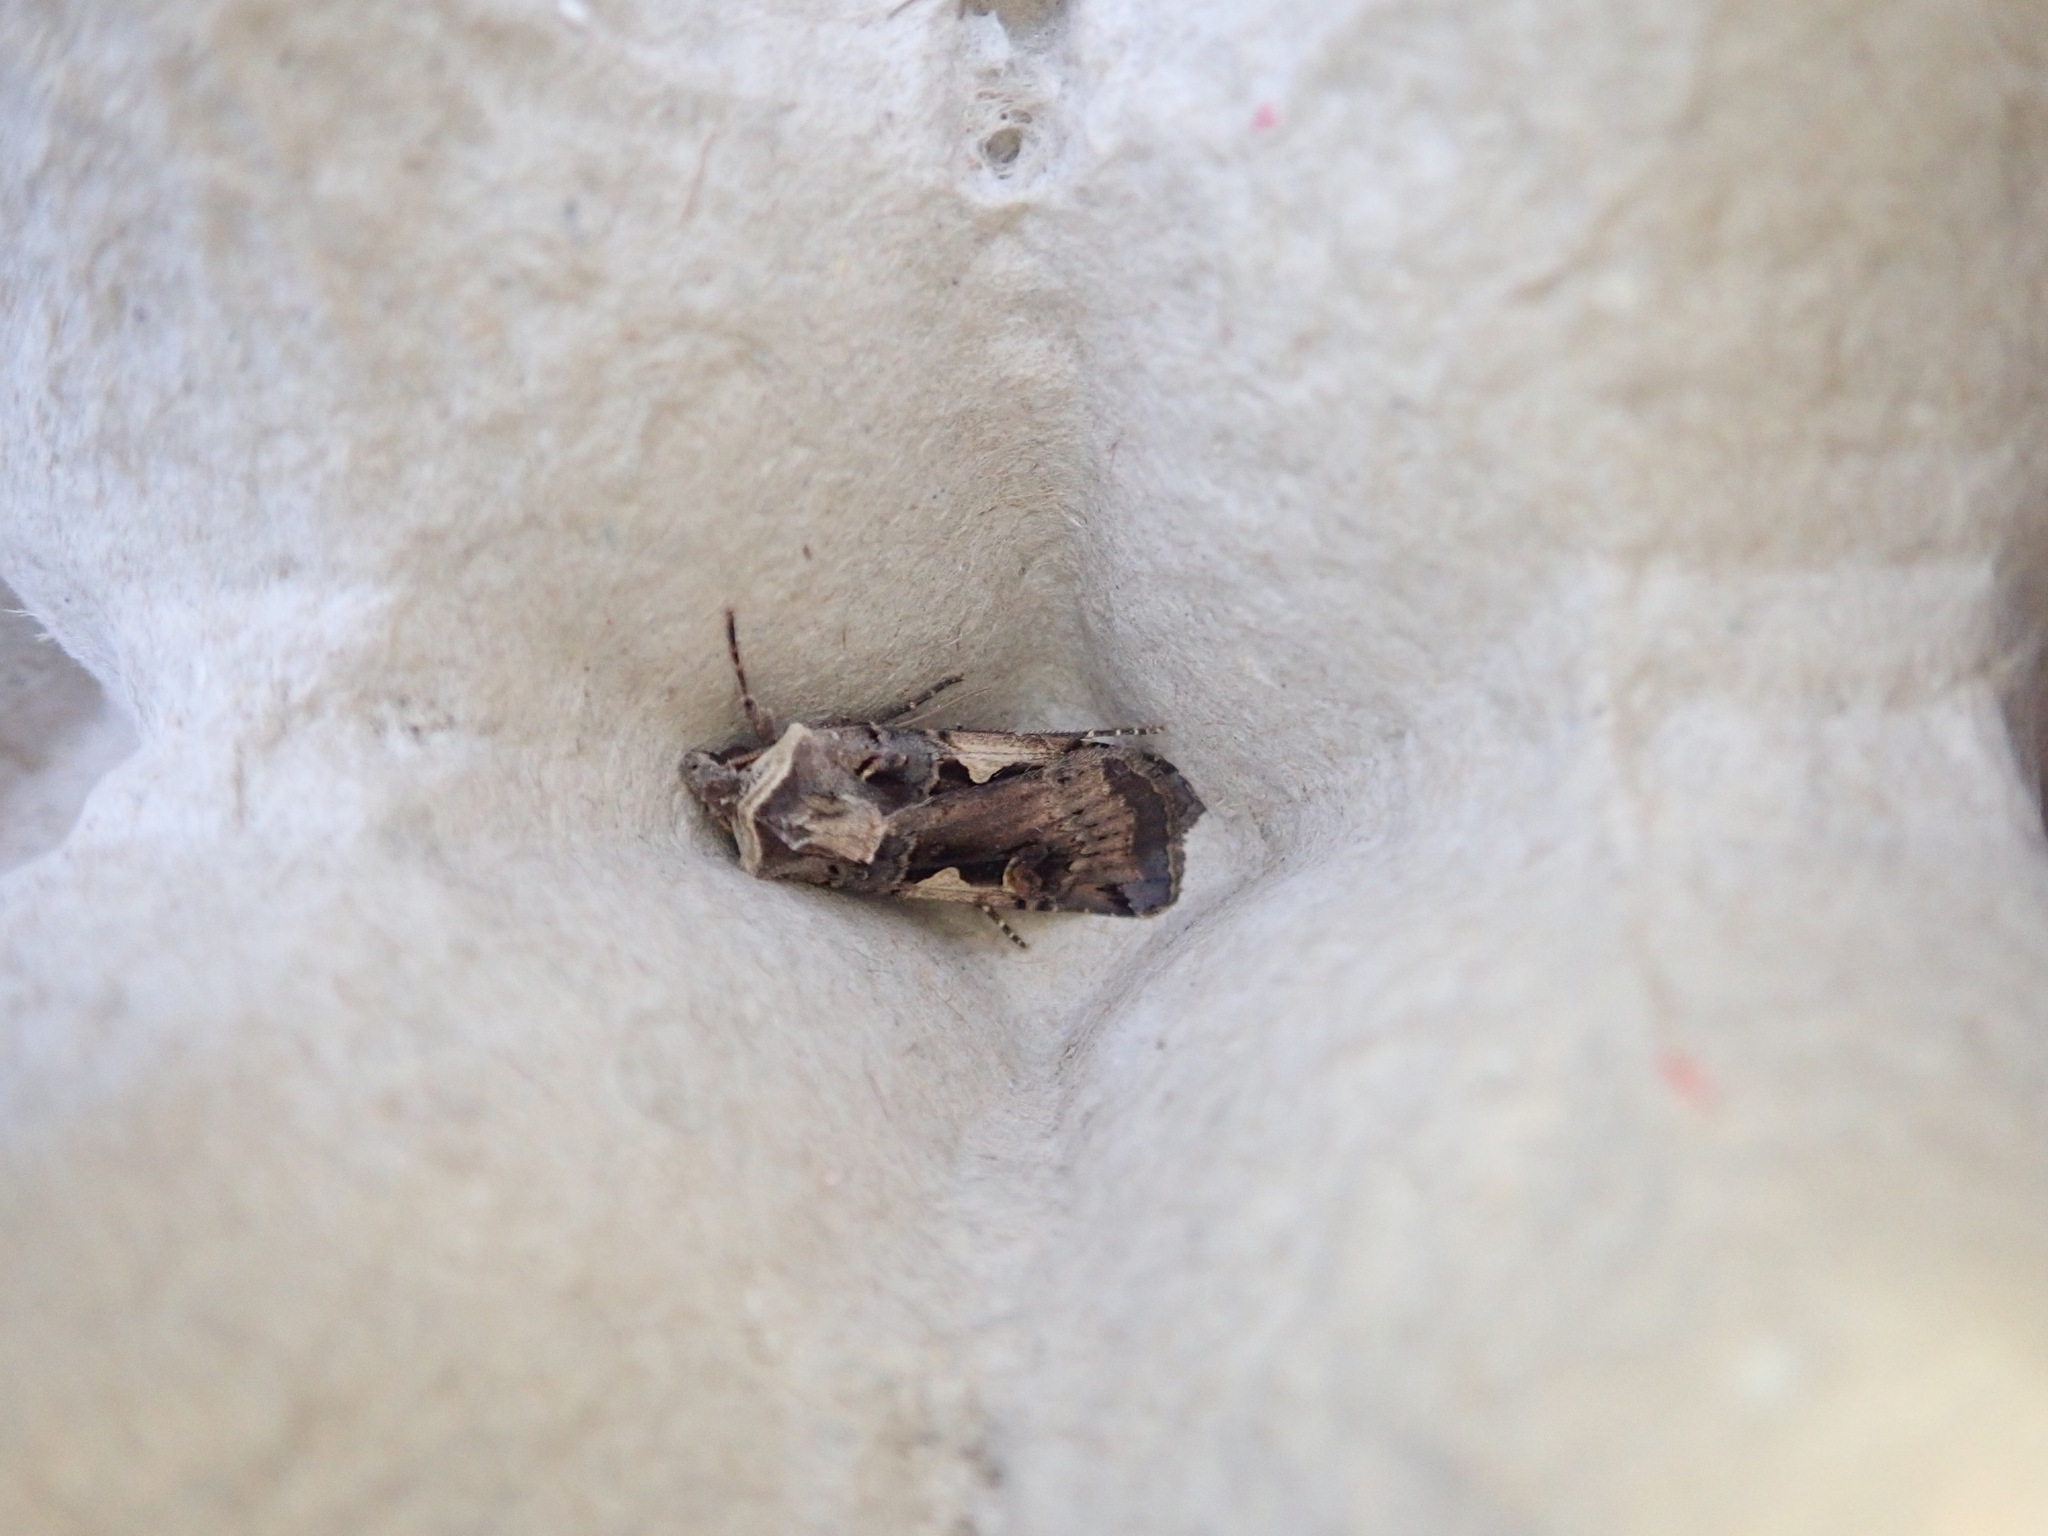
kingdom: Animalia
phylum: Arthropoda
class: Insecta
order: Lepidoptera
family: Noctuidae
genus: Xestia
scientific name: Xestia c-nigrum
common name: Setaceous hebrew character
